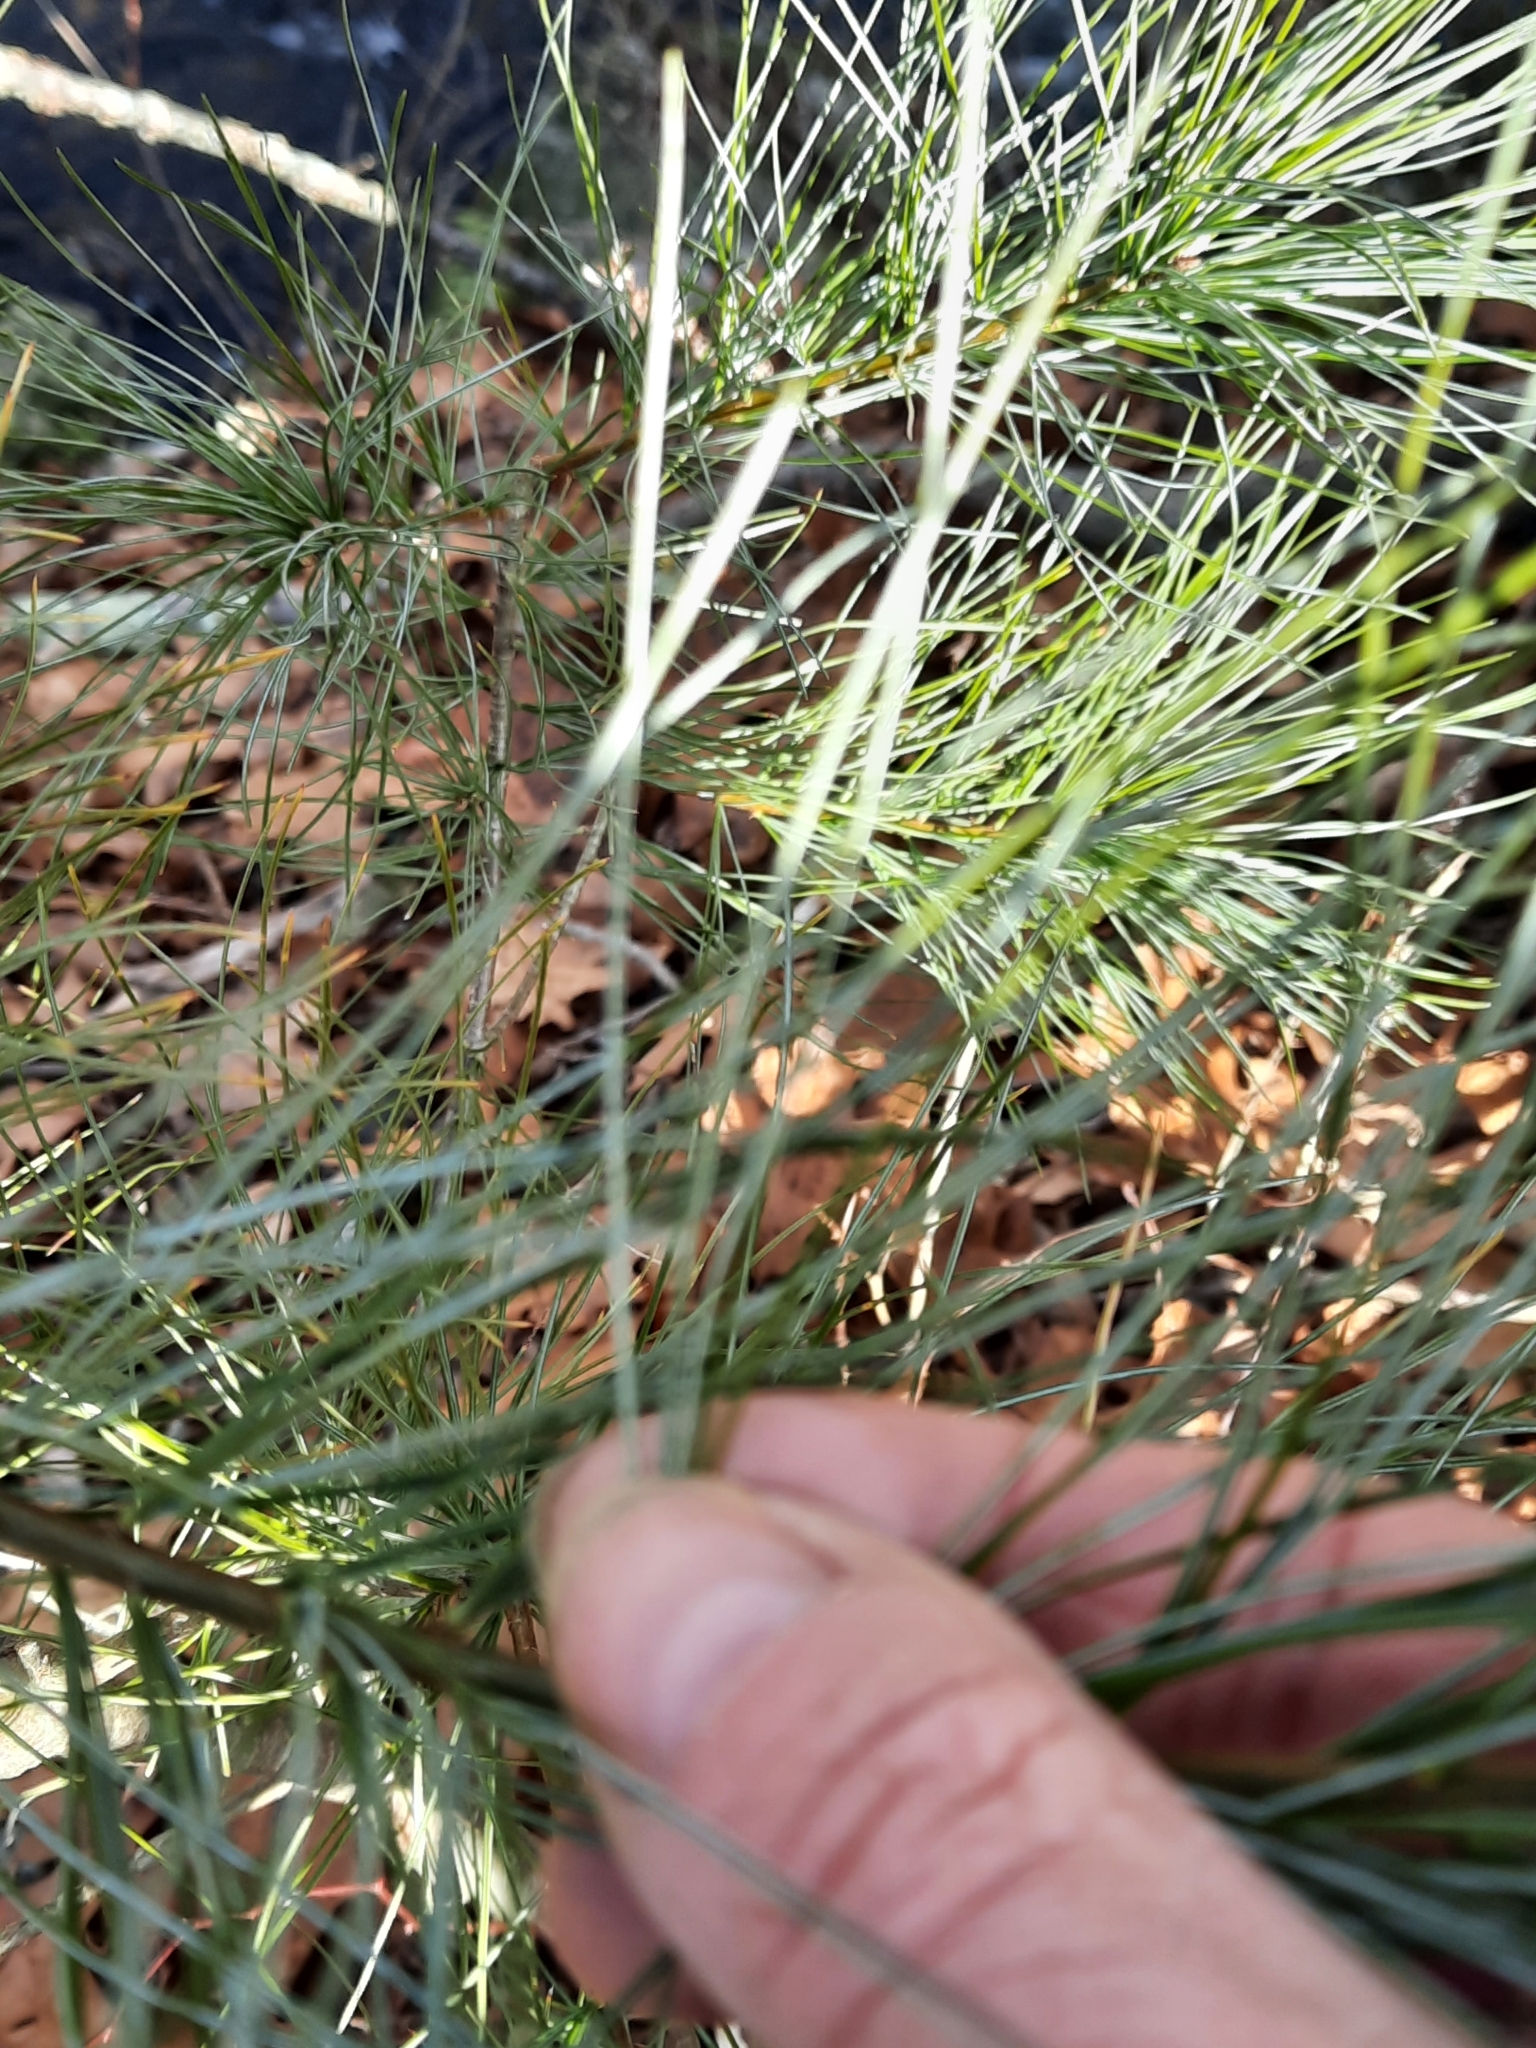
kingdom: Plantae
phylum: Tracheophyta
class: Pinopsida
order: Pinales
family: Pinaceae
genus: Pinus
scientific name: Pinus strobus
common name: Weymouth pine
